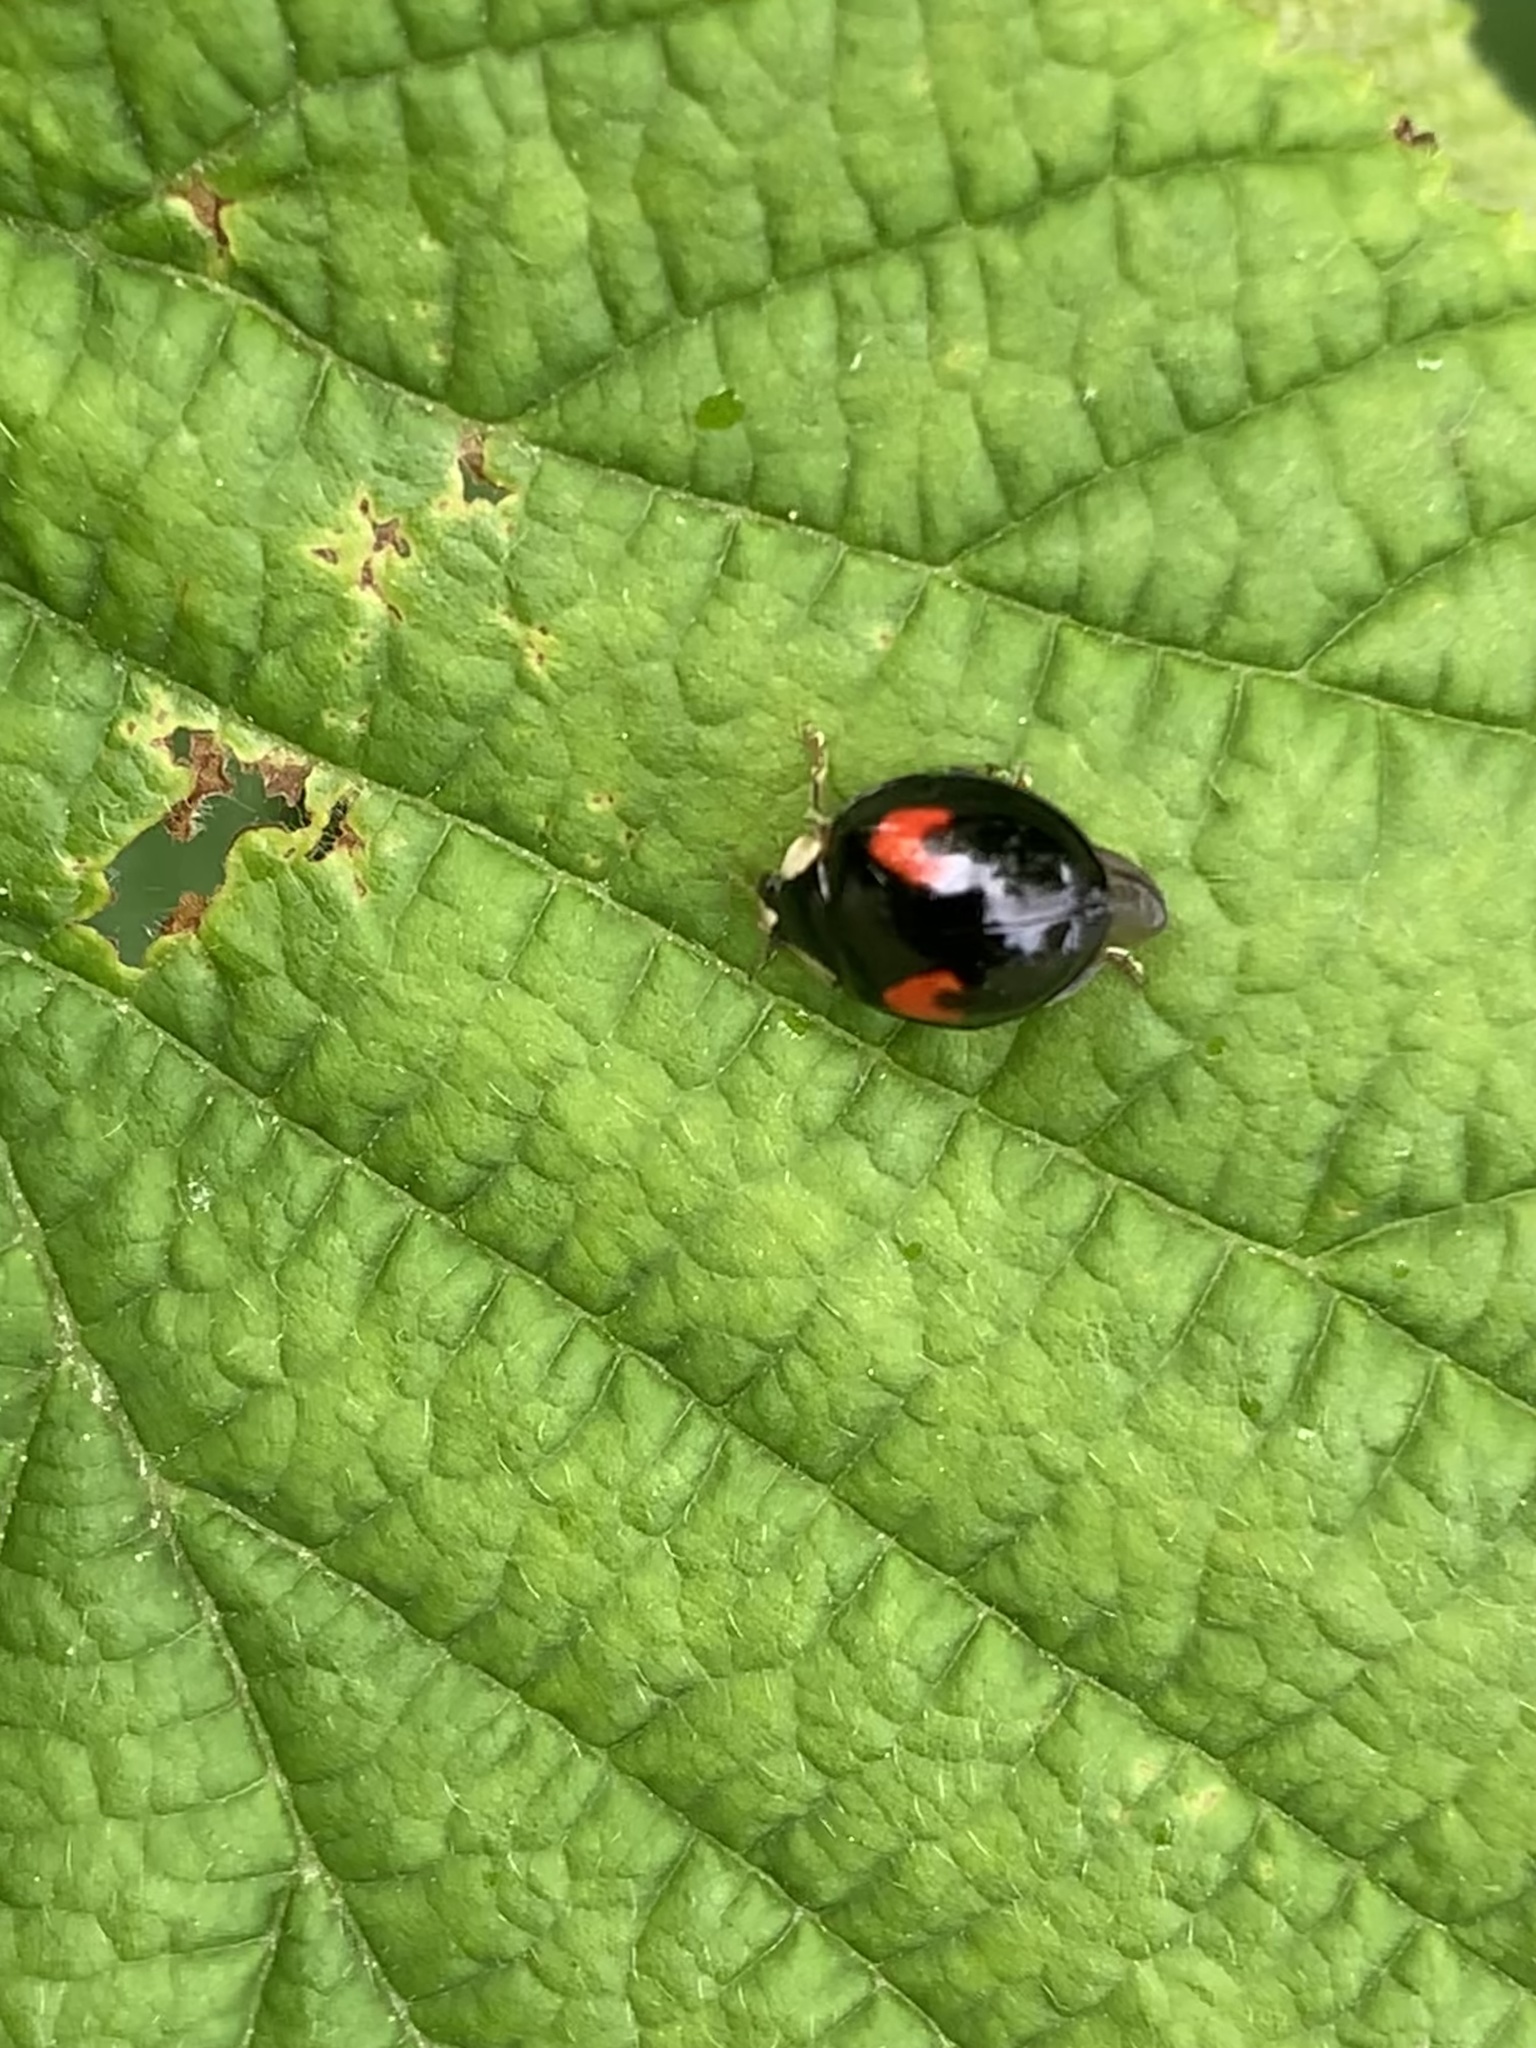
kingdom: Animalia
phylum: Arthropoda
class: Insecta
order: Coleoptera
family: Coccinellidae
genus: Harmonia
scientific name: Harmonia axyridis
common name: Harlequin ladybird
